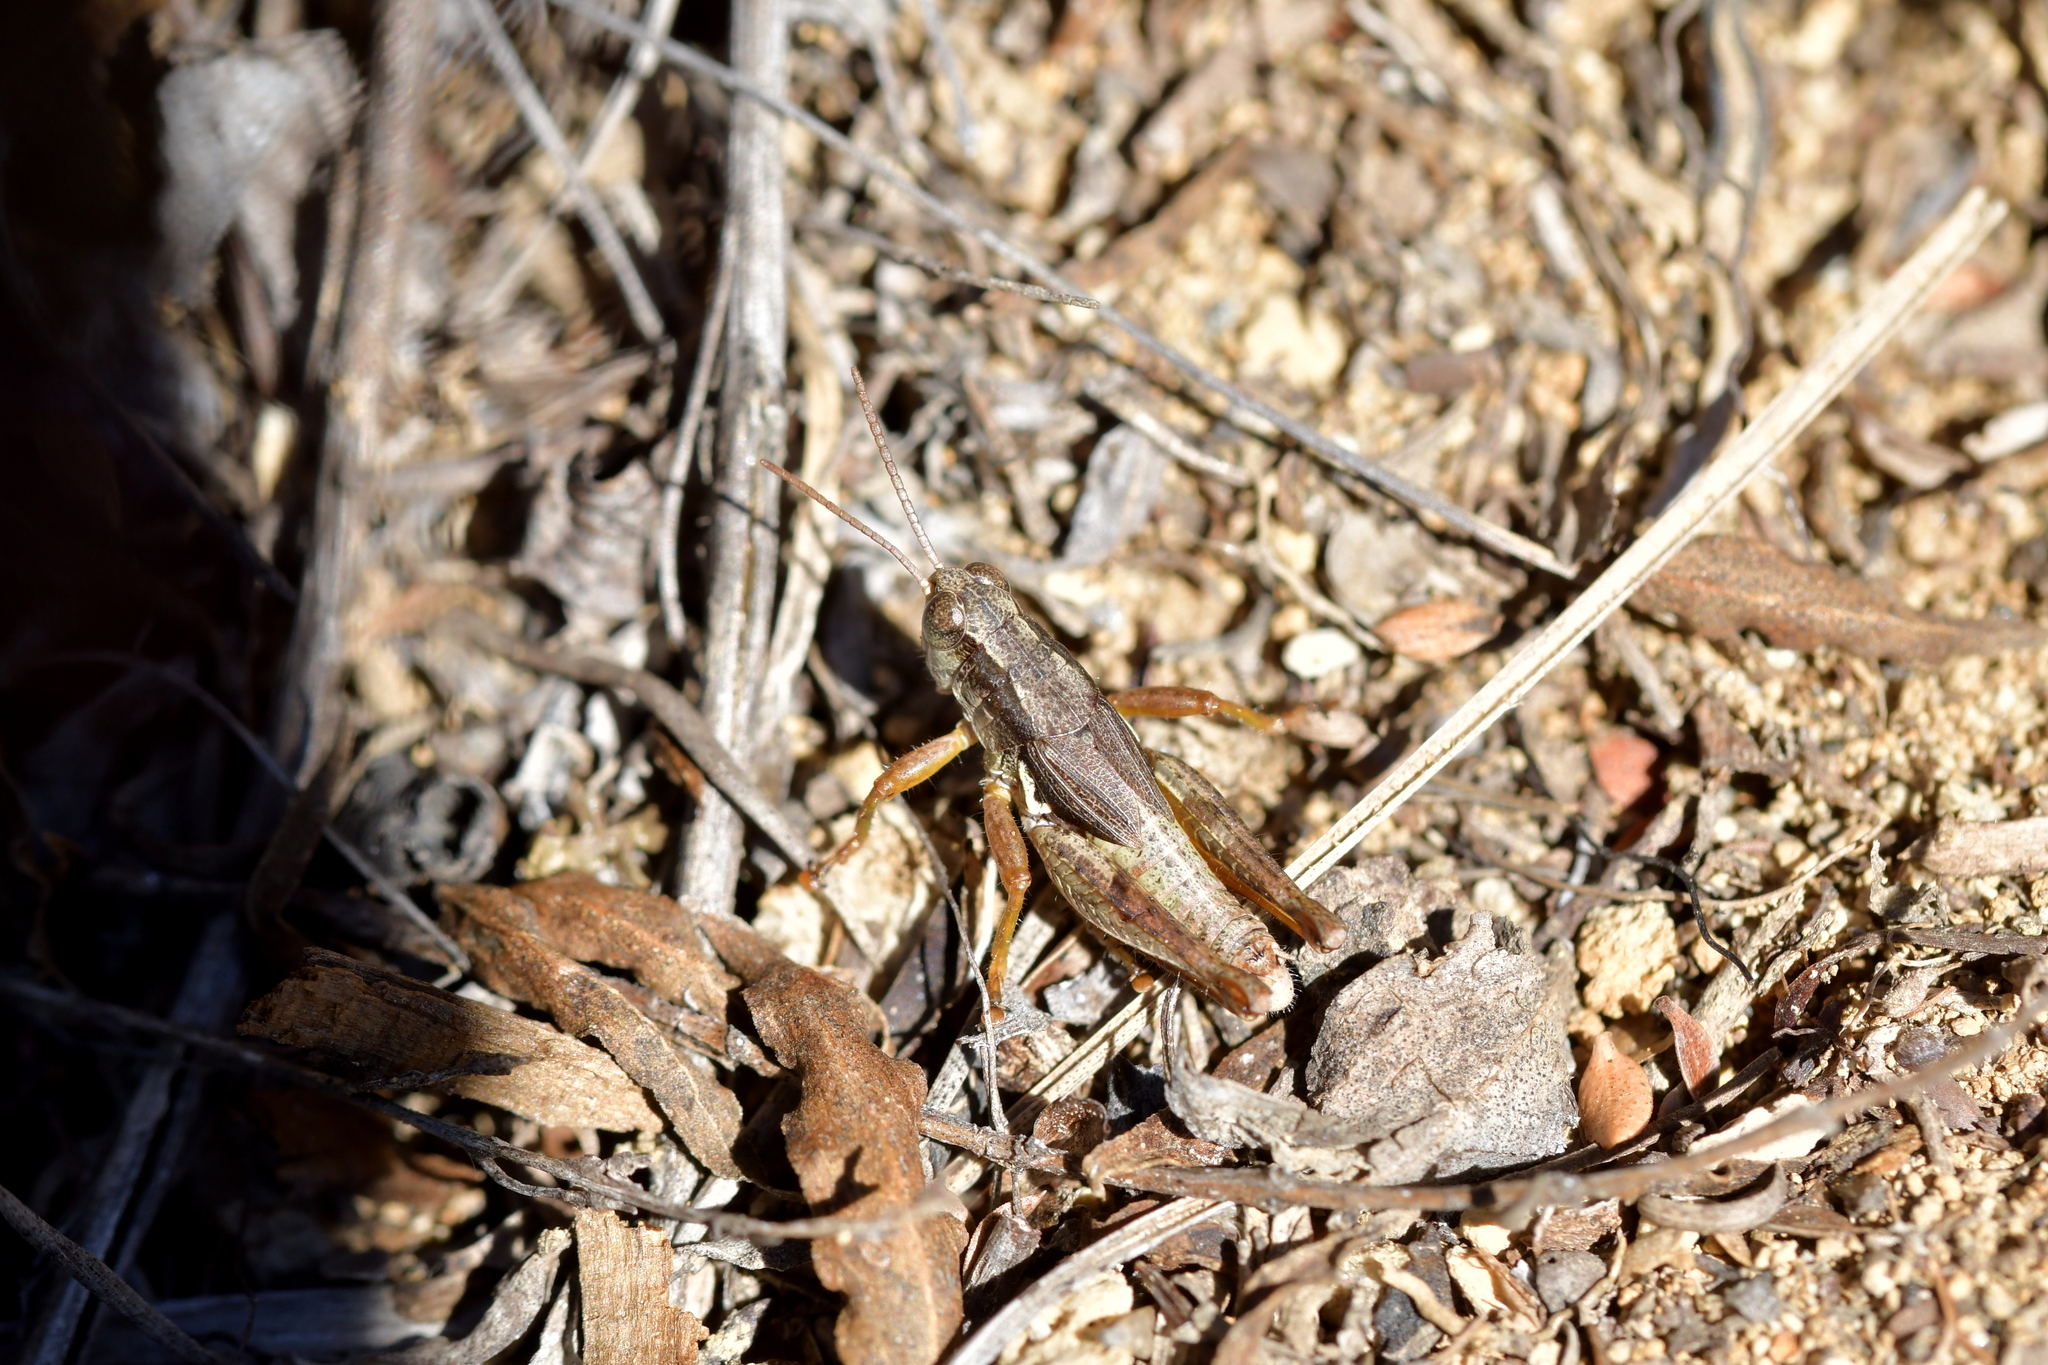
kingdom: Animalia
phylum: Arthropoda
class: Insecta
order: Orthoptera
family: Acrididae
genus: Phaulacridium
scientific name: Phaulacridium marginale
